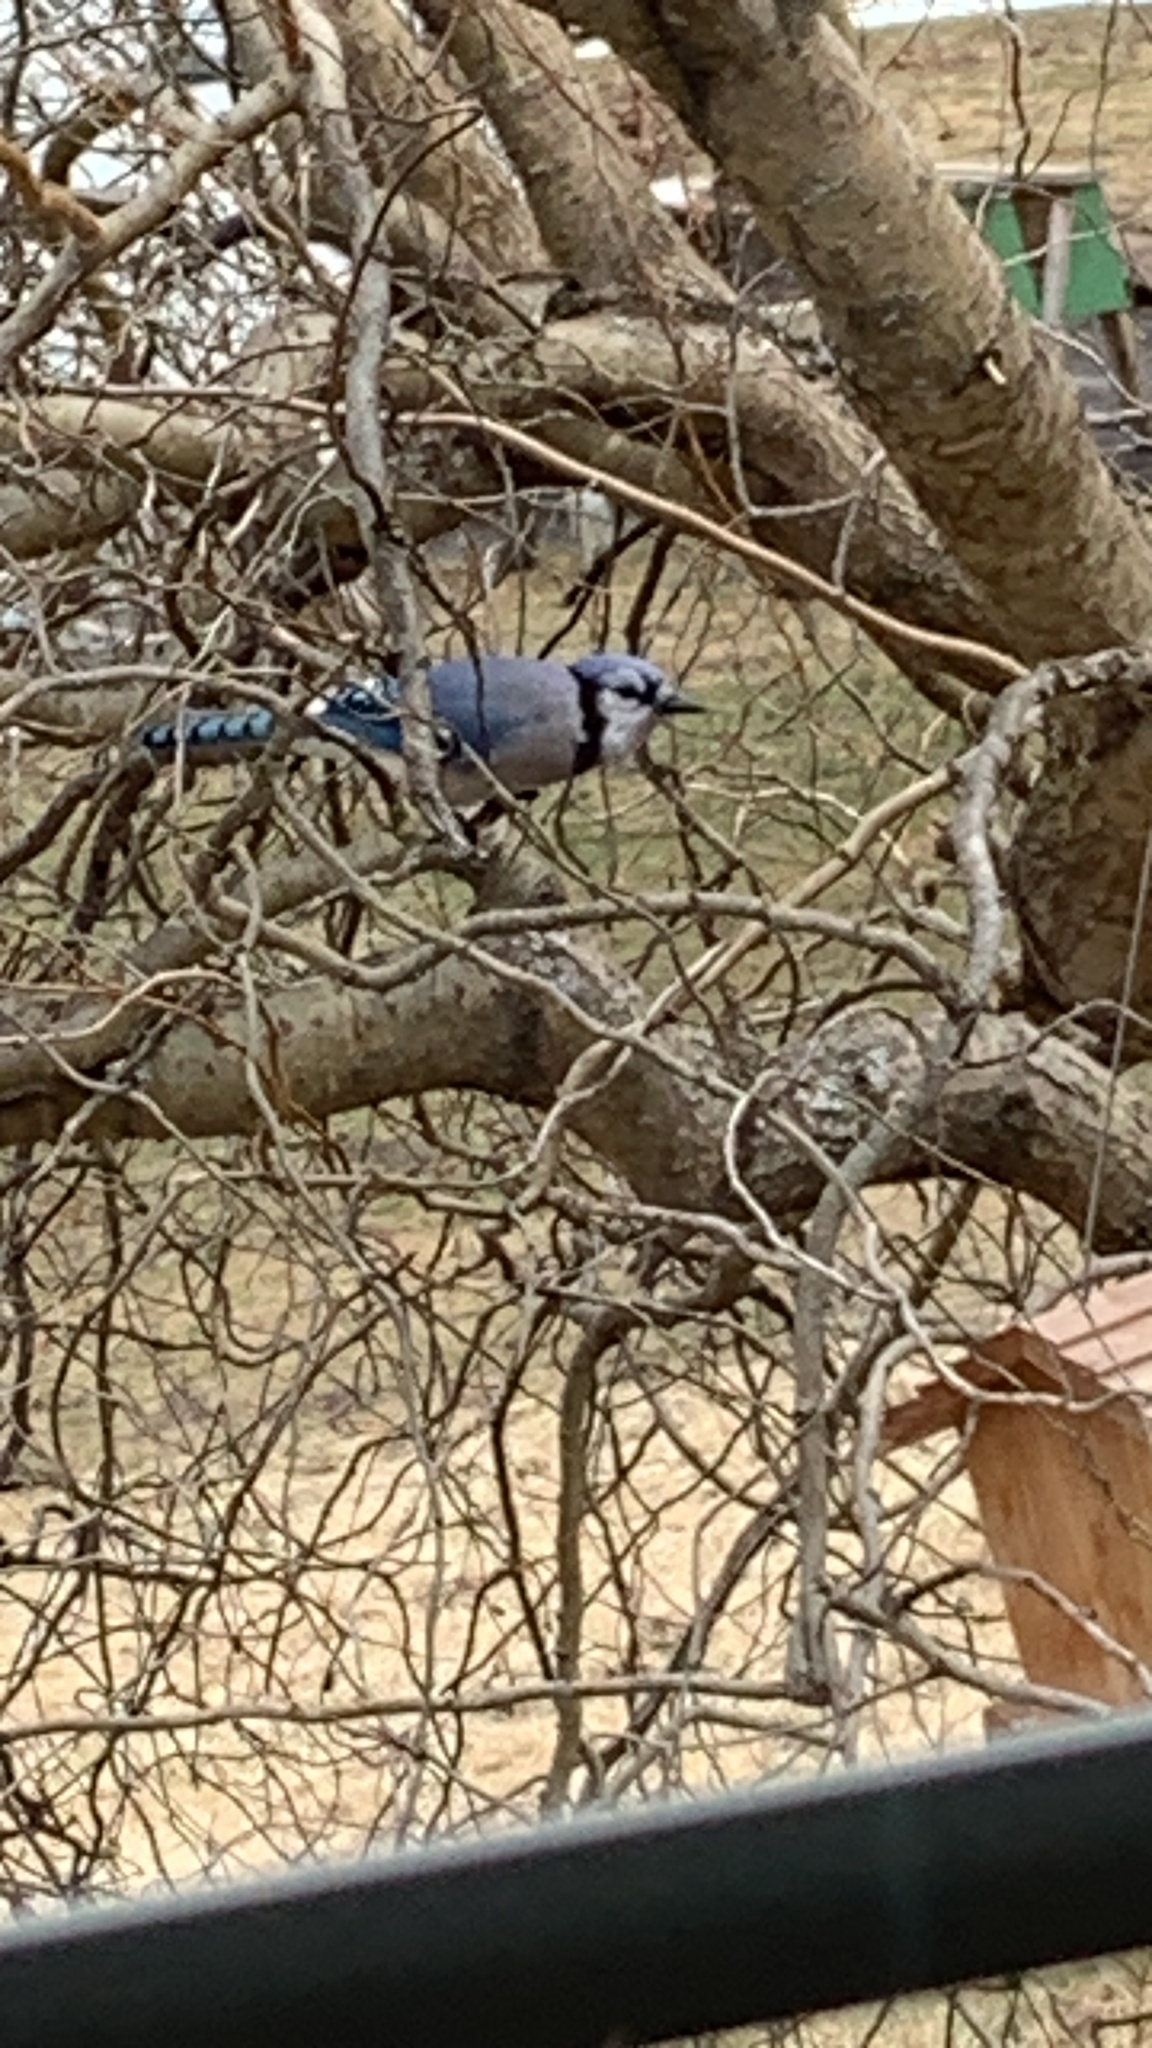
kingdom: Animalia
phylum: Chordata
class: Aves
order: Passeriformes
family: Corvidae
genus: Cyanocitta
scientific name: Cyanocitta cristata
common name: Blue jay
